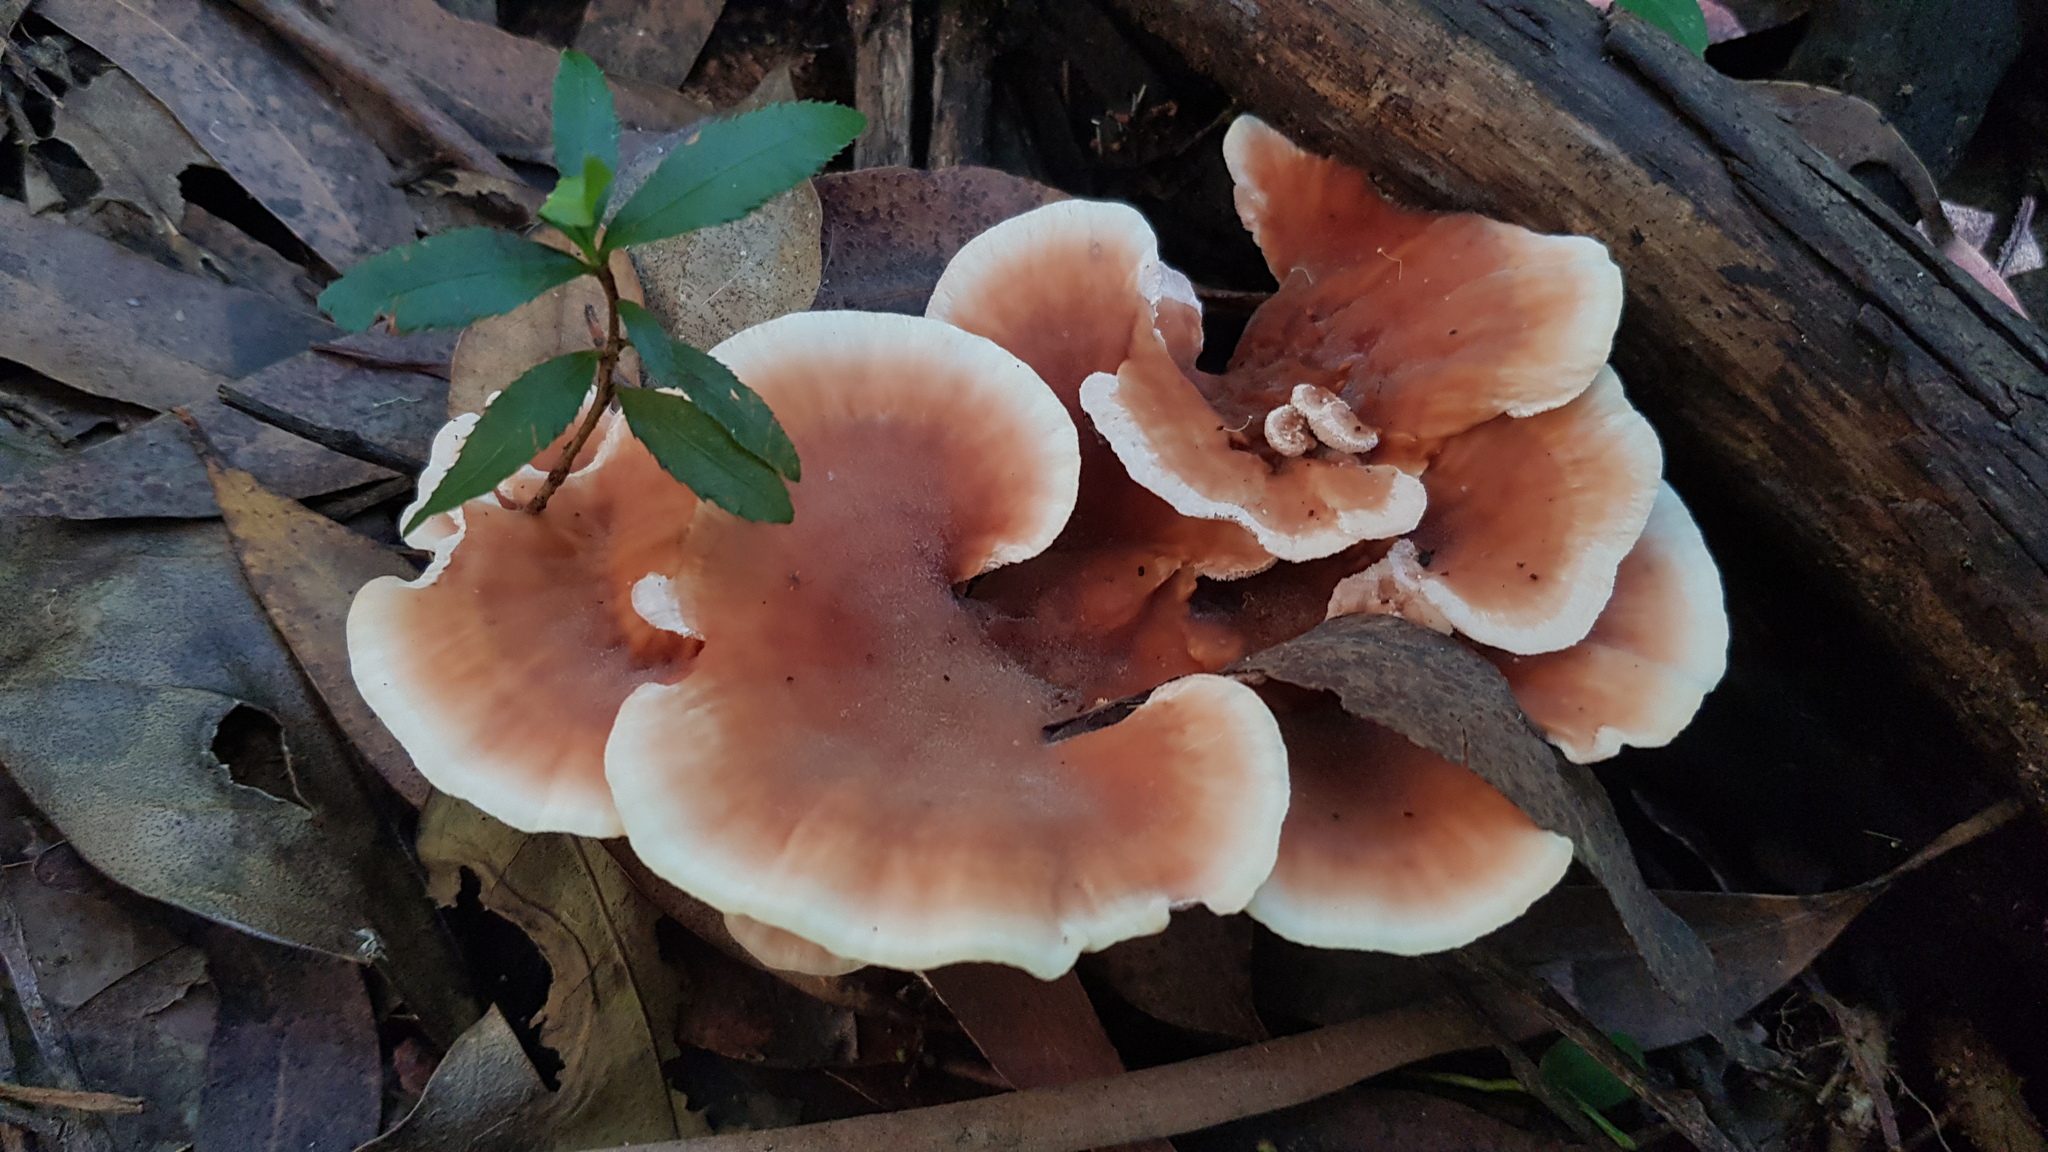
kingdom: Fungi
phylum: Basidiomycota
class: Agaricomycetes
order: Polyporales
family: Podoscyphaceae
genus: Abortiporus
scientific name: Abortiporus biennis
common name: Blushing rosette
